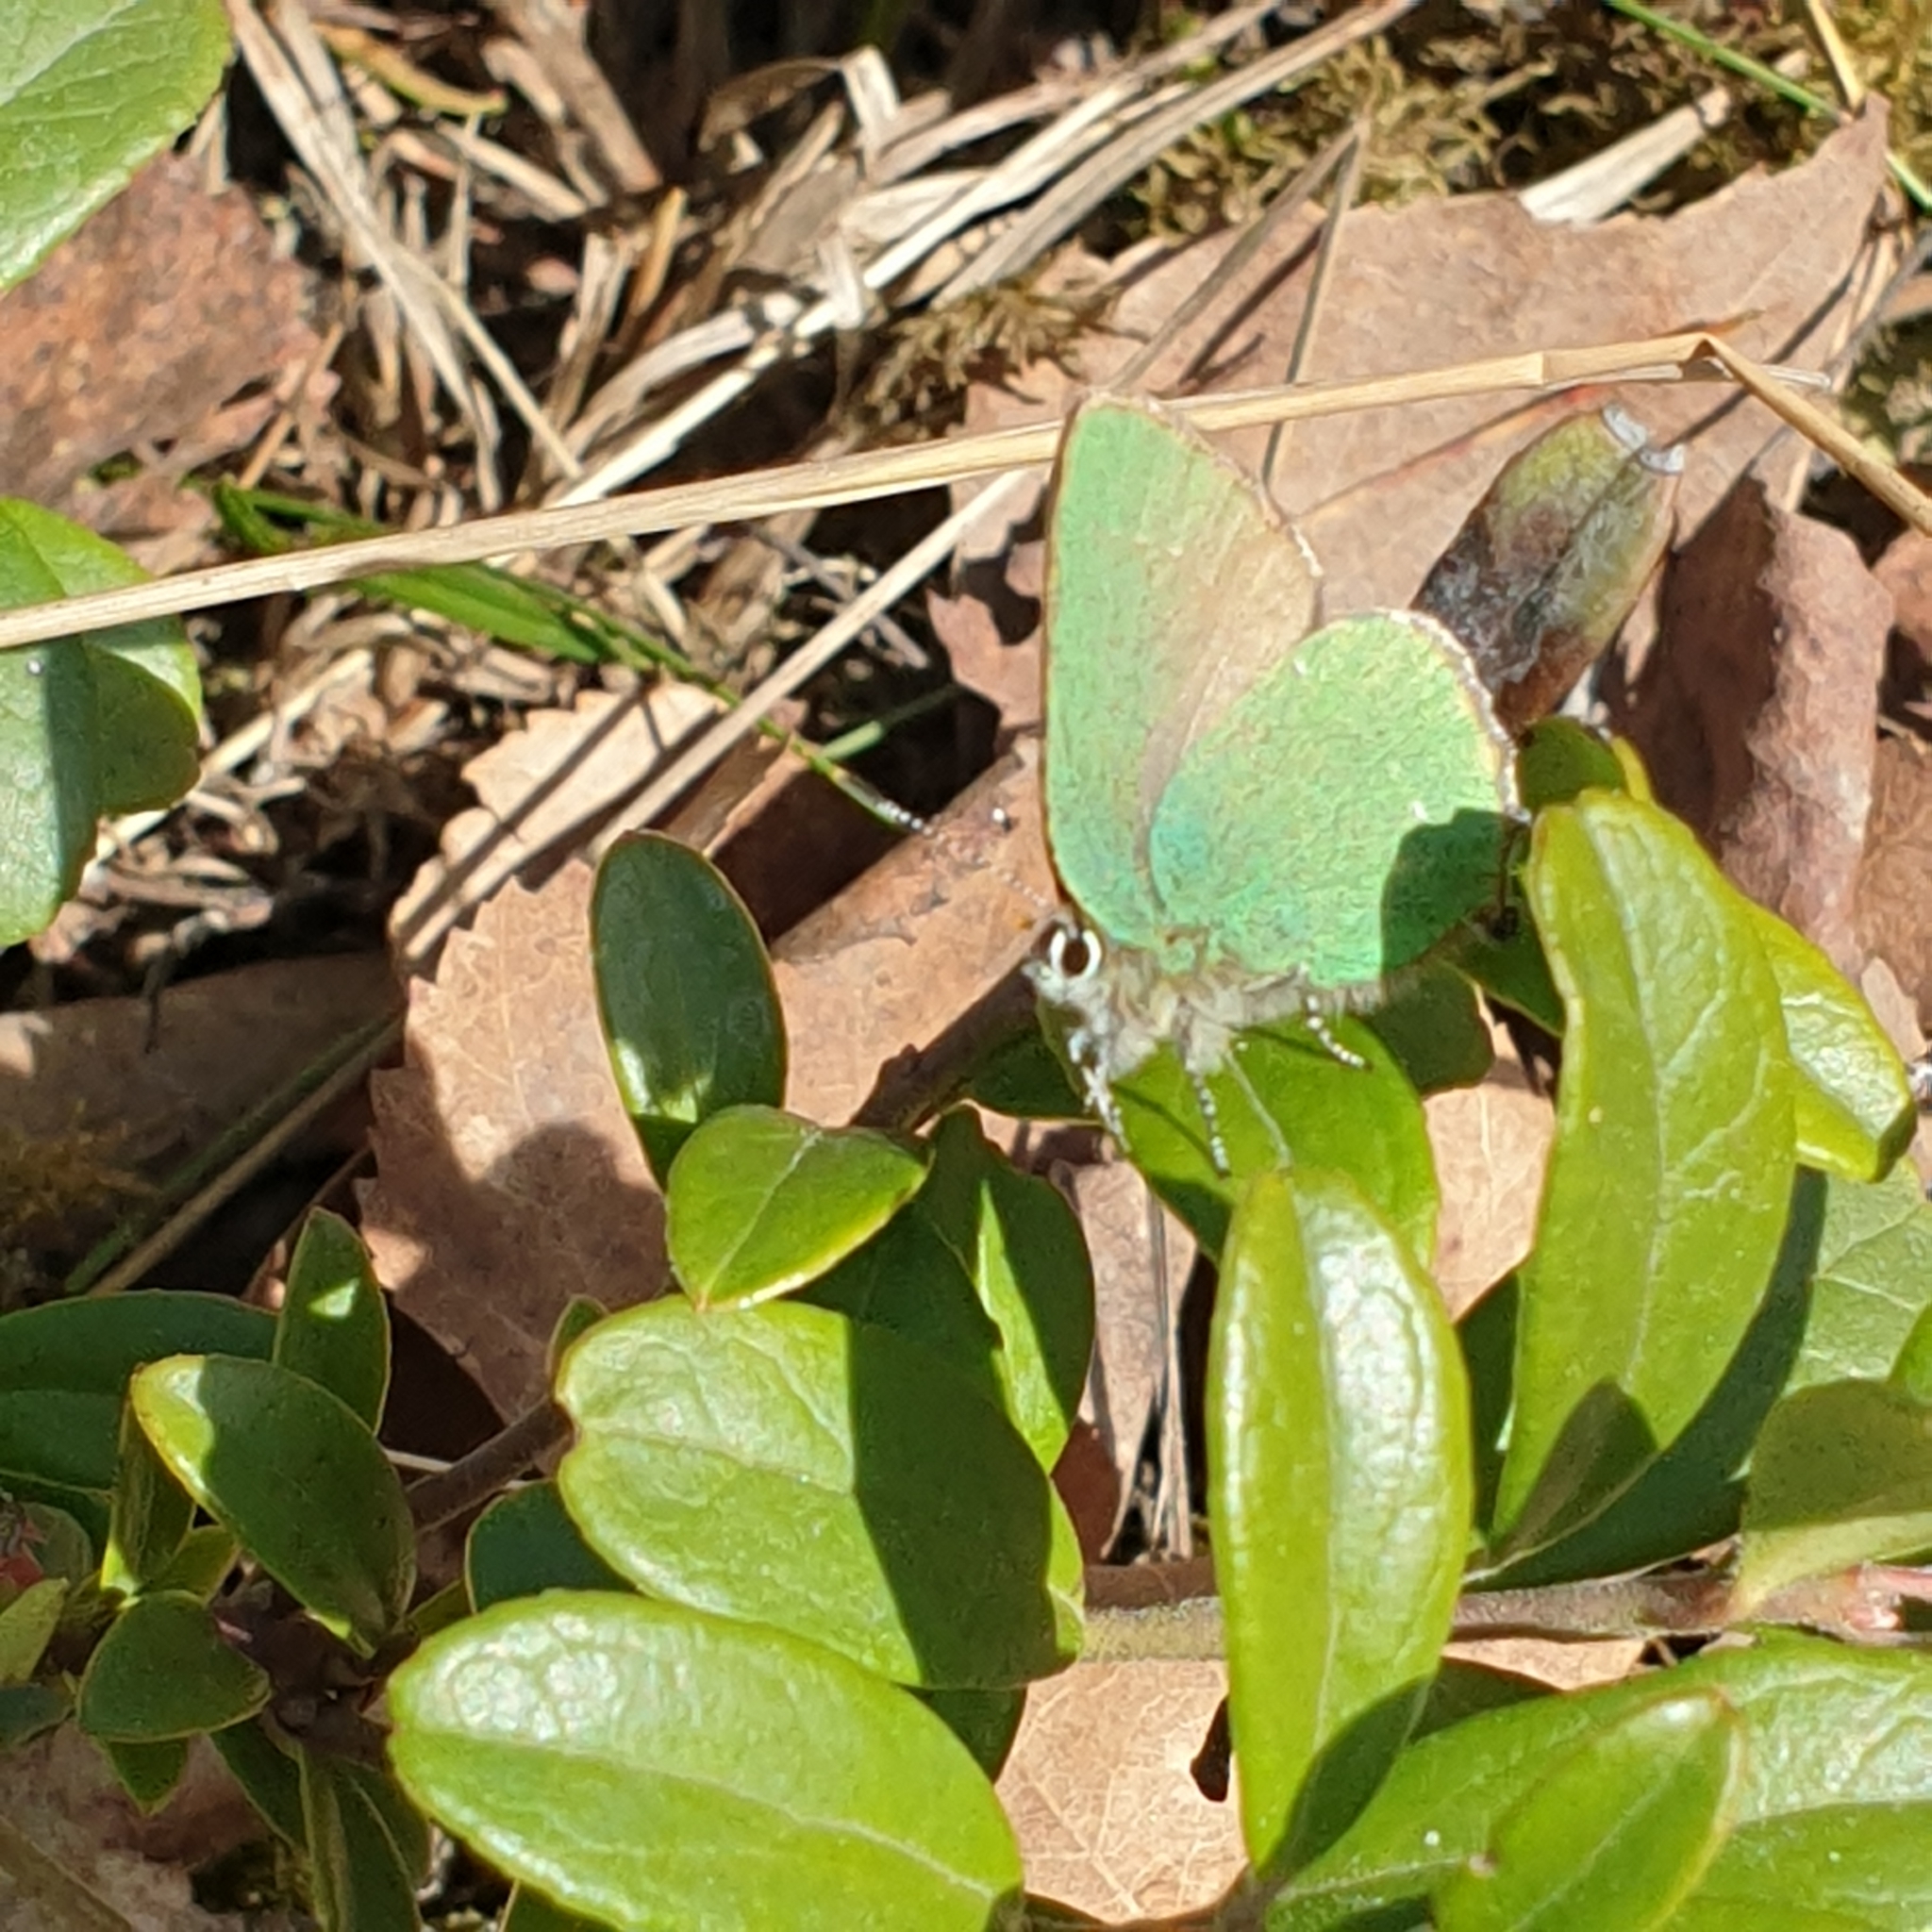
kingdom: Animalia
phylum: Arthropoda
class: Insecta
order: Lepidoptera
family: Lycaenidae
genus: Callophrys
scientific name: Callophrys rubi
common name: Green hairstreak
